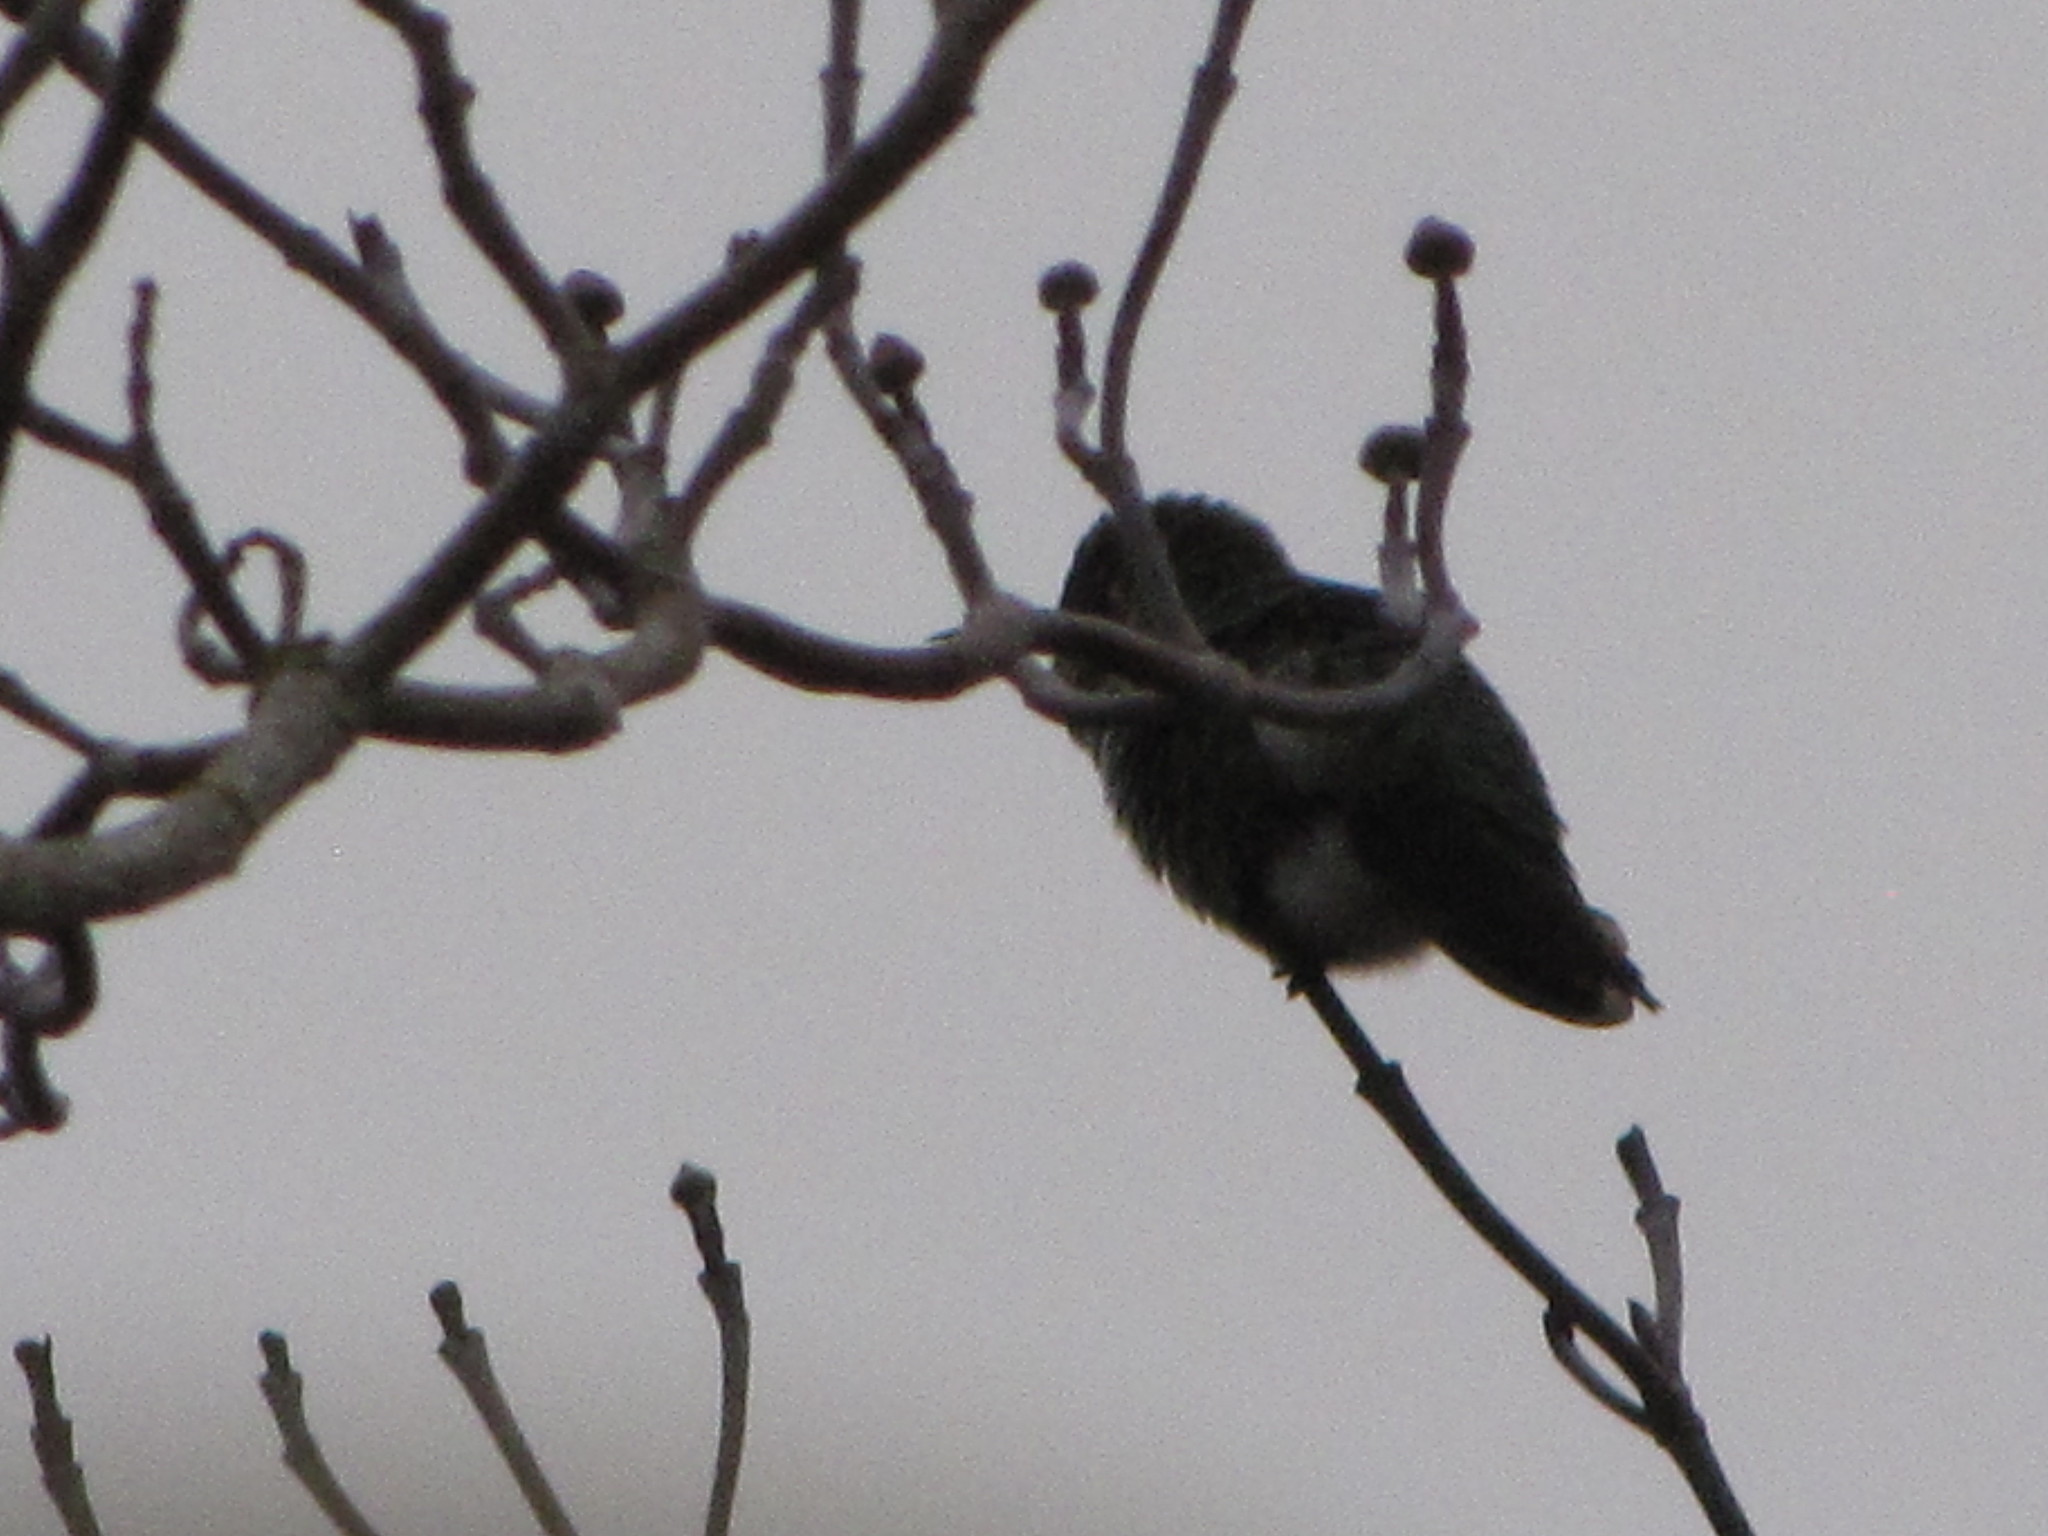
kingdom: Animalia
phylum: Chordata
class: Aves
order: Apodiformes
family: Trochilidae
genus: Calypte
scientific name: Calypte anna
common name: Anna's hummingbird
